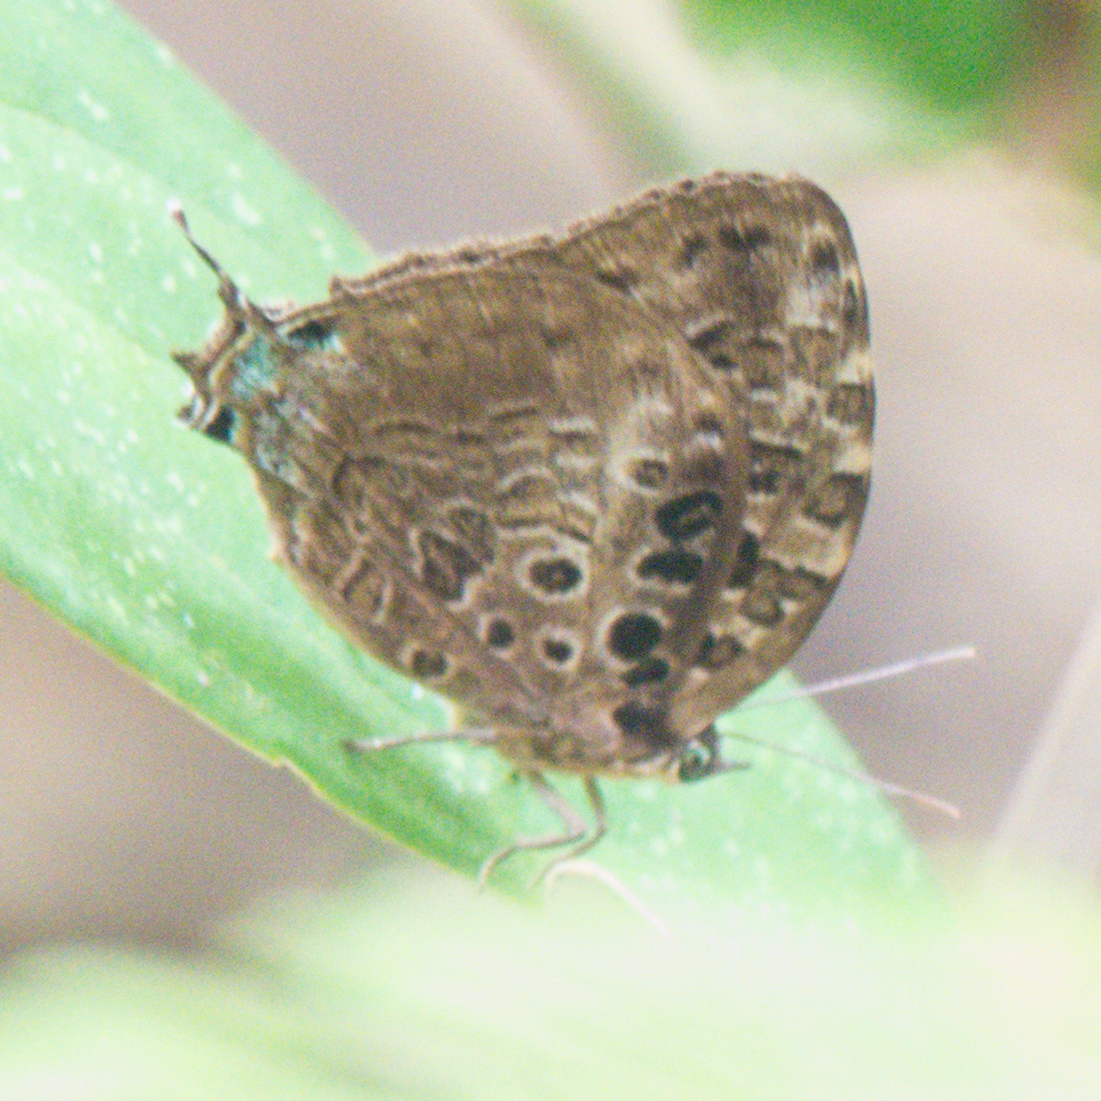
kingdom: Animalia
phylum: Arthropoda
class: Insecta
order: Lepidoptera
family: Lycaenidae
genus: Arhopala
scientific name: Arhopala anthelus
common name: Bushblue
